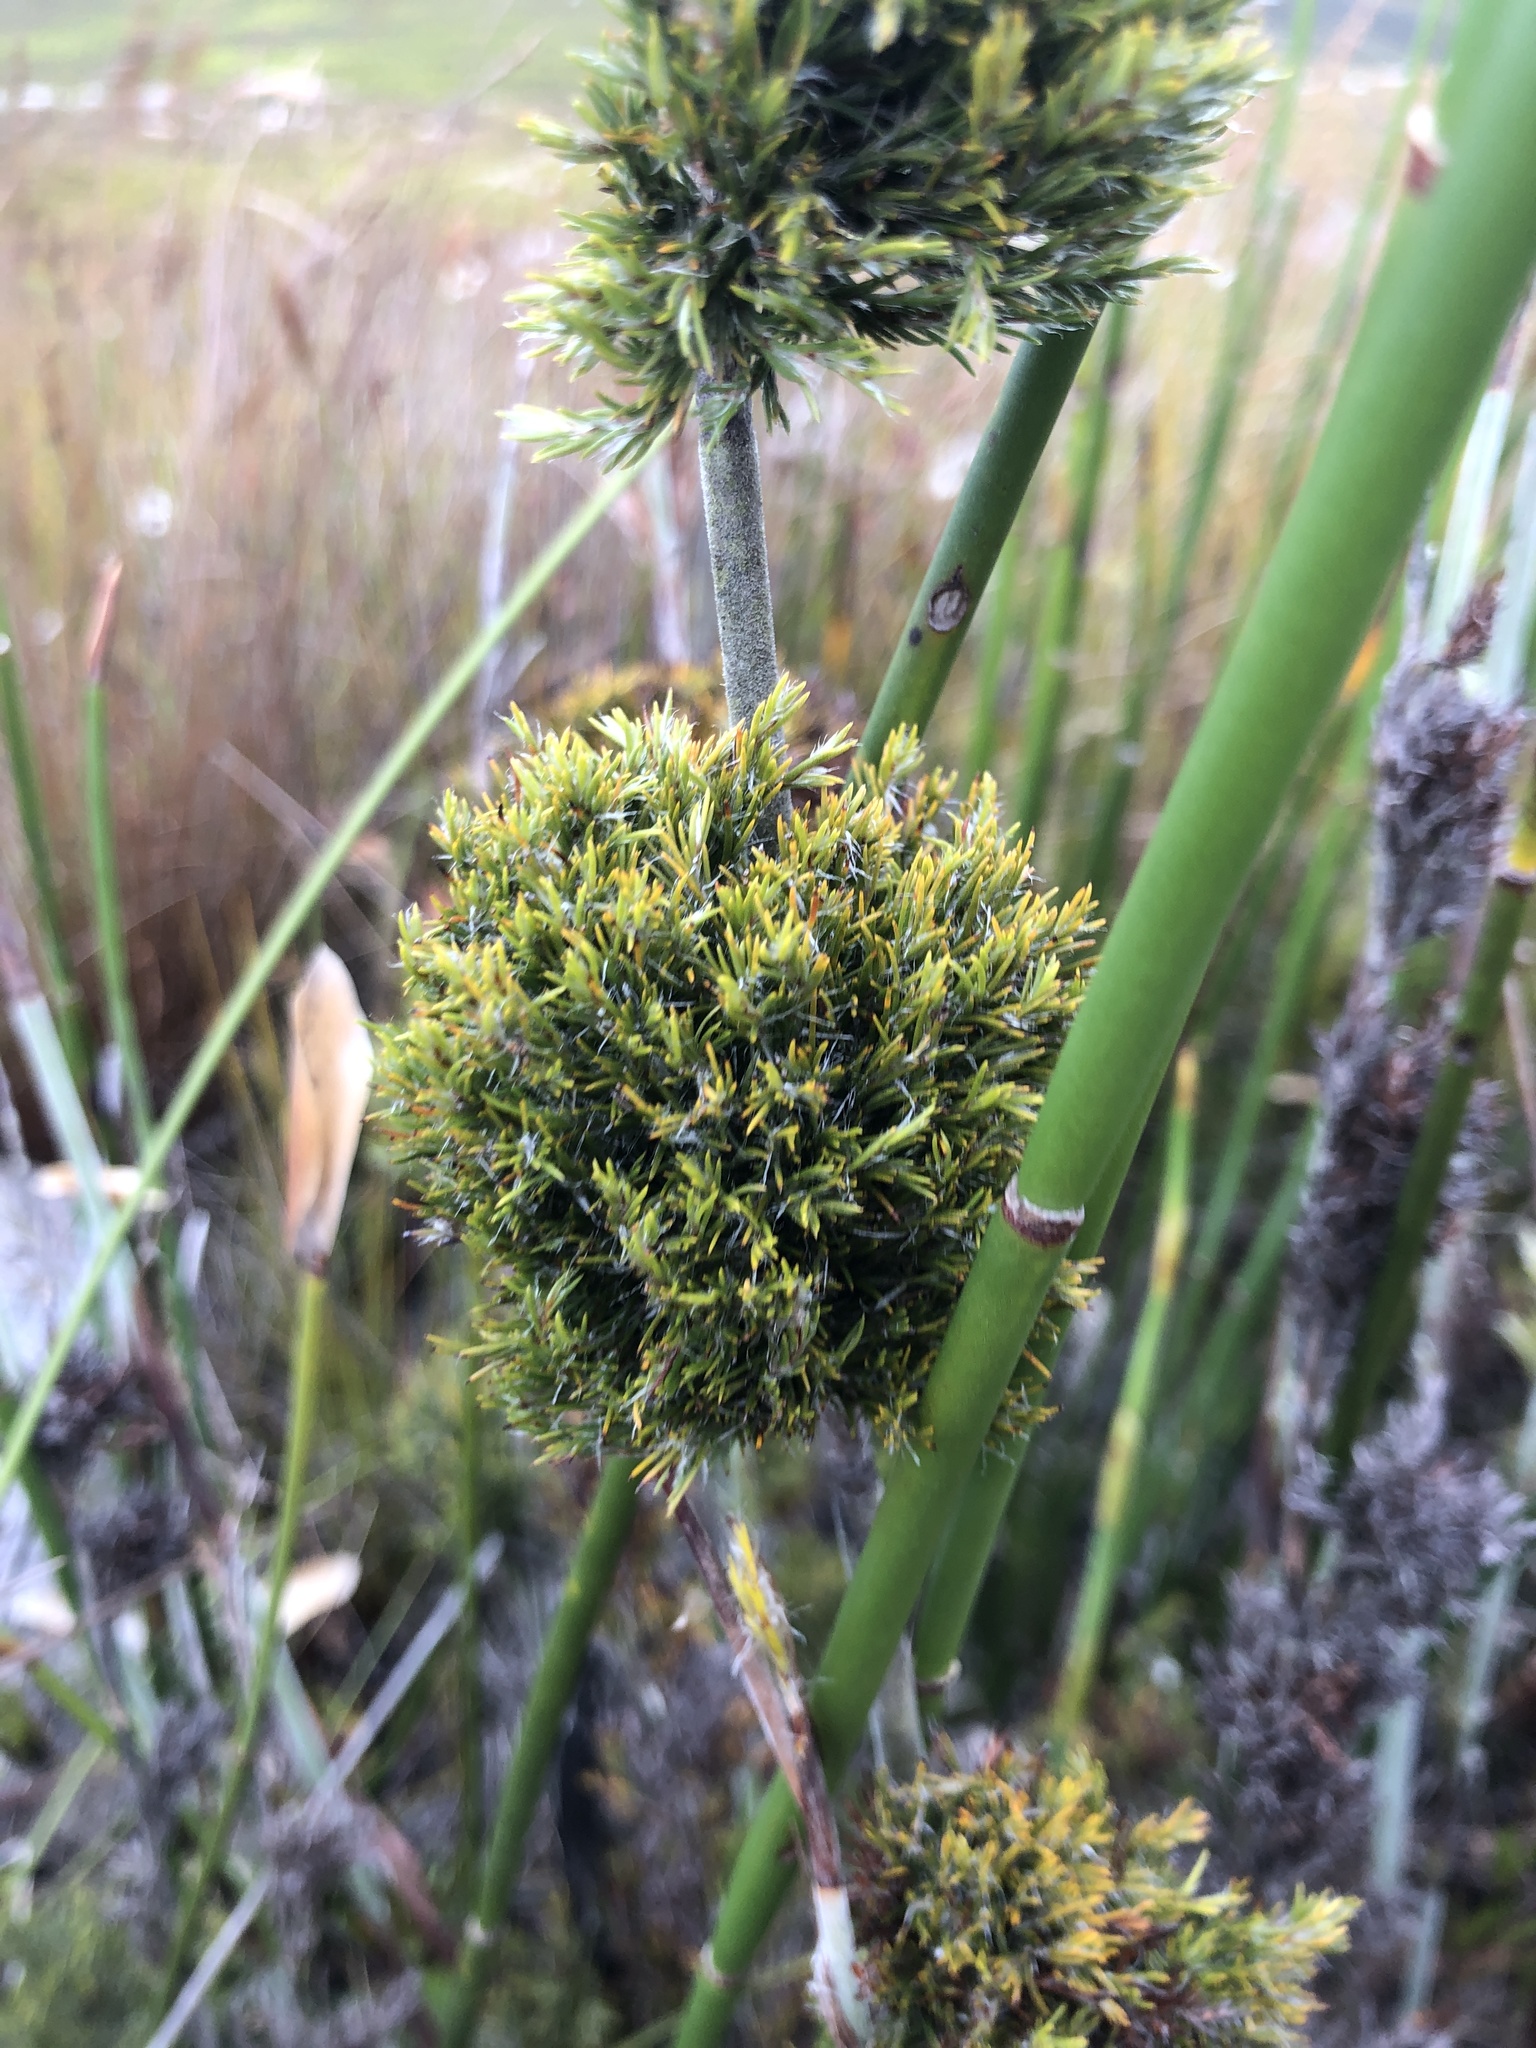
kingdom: Plantae
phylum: Tracheophyta
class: Liliopsida
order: Poales
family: Restionaceae
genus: Thamnochortus
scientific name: Thamnochortus cinereus
